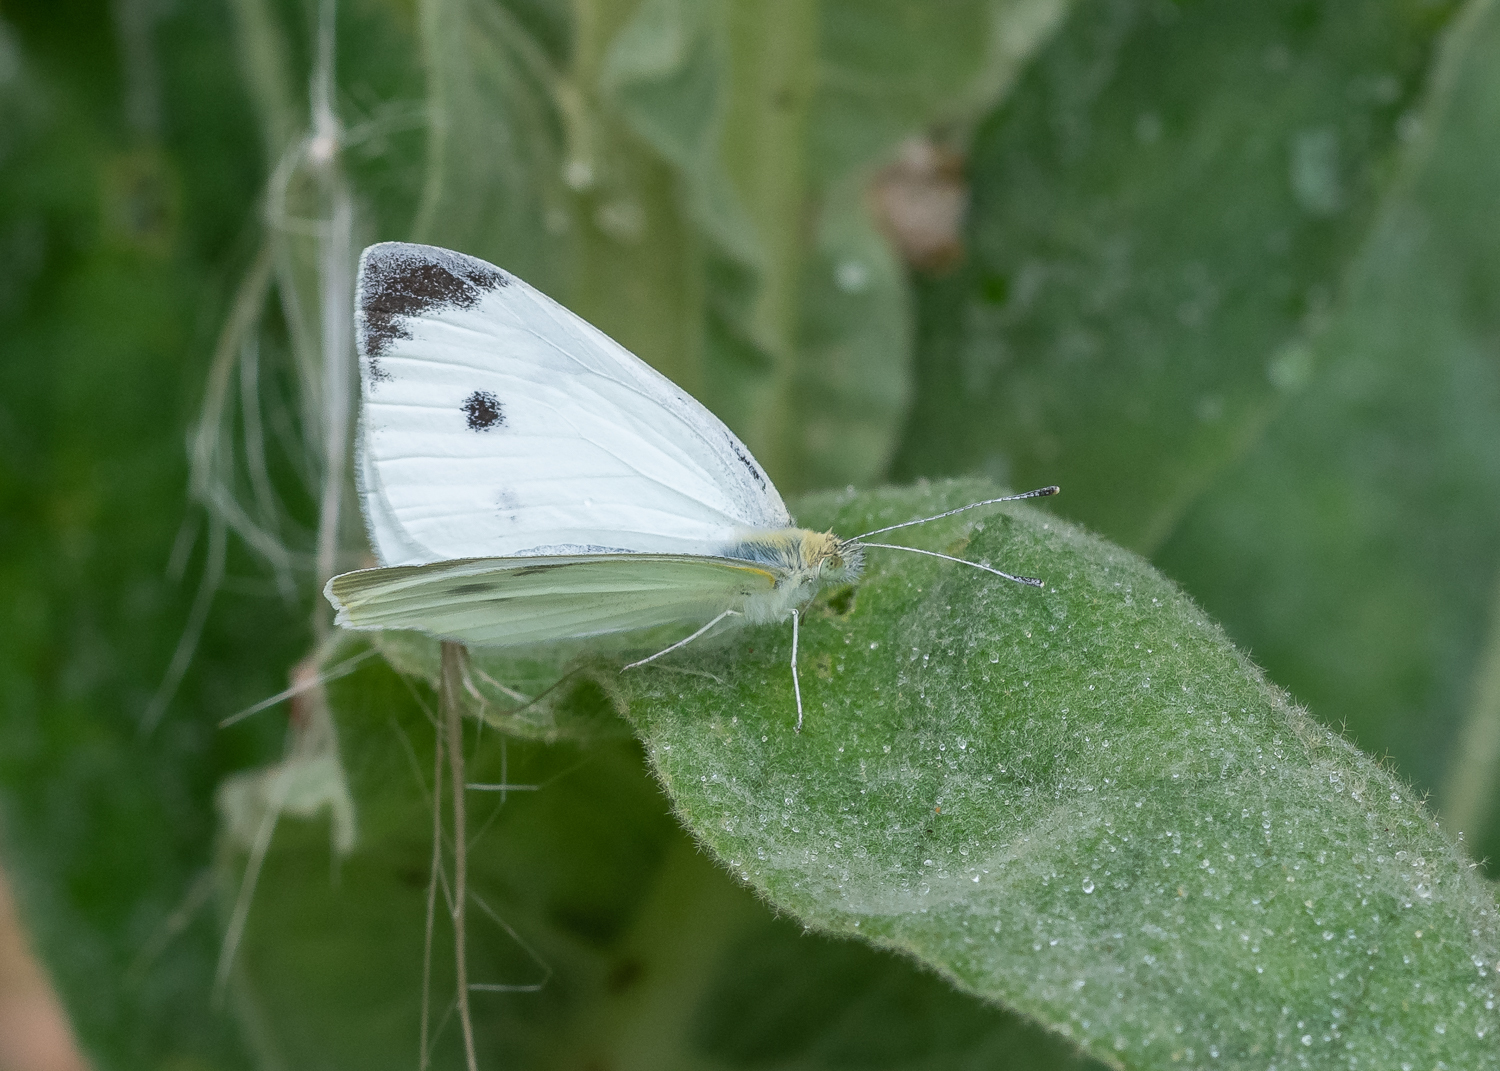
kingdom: Animalia
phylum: Arthropoda
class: Insecta
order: Lepidoptera
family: Pieridae
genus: Pieris
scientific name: Pieris rapae
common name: Small white
